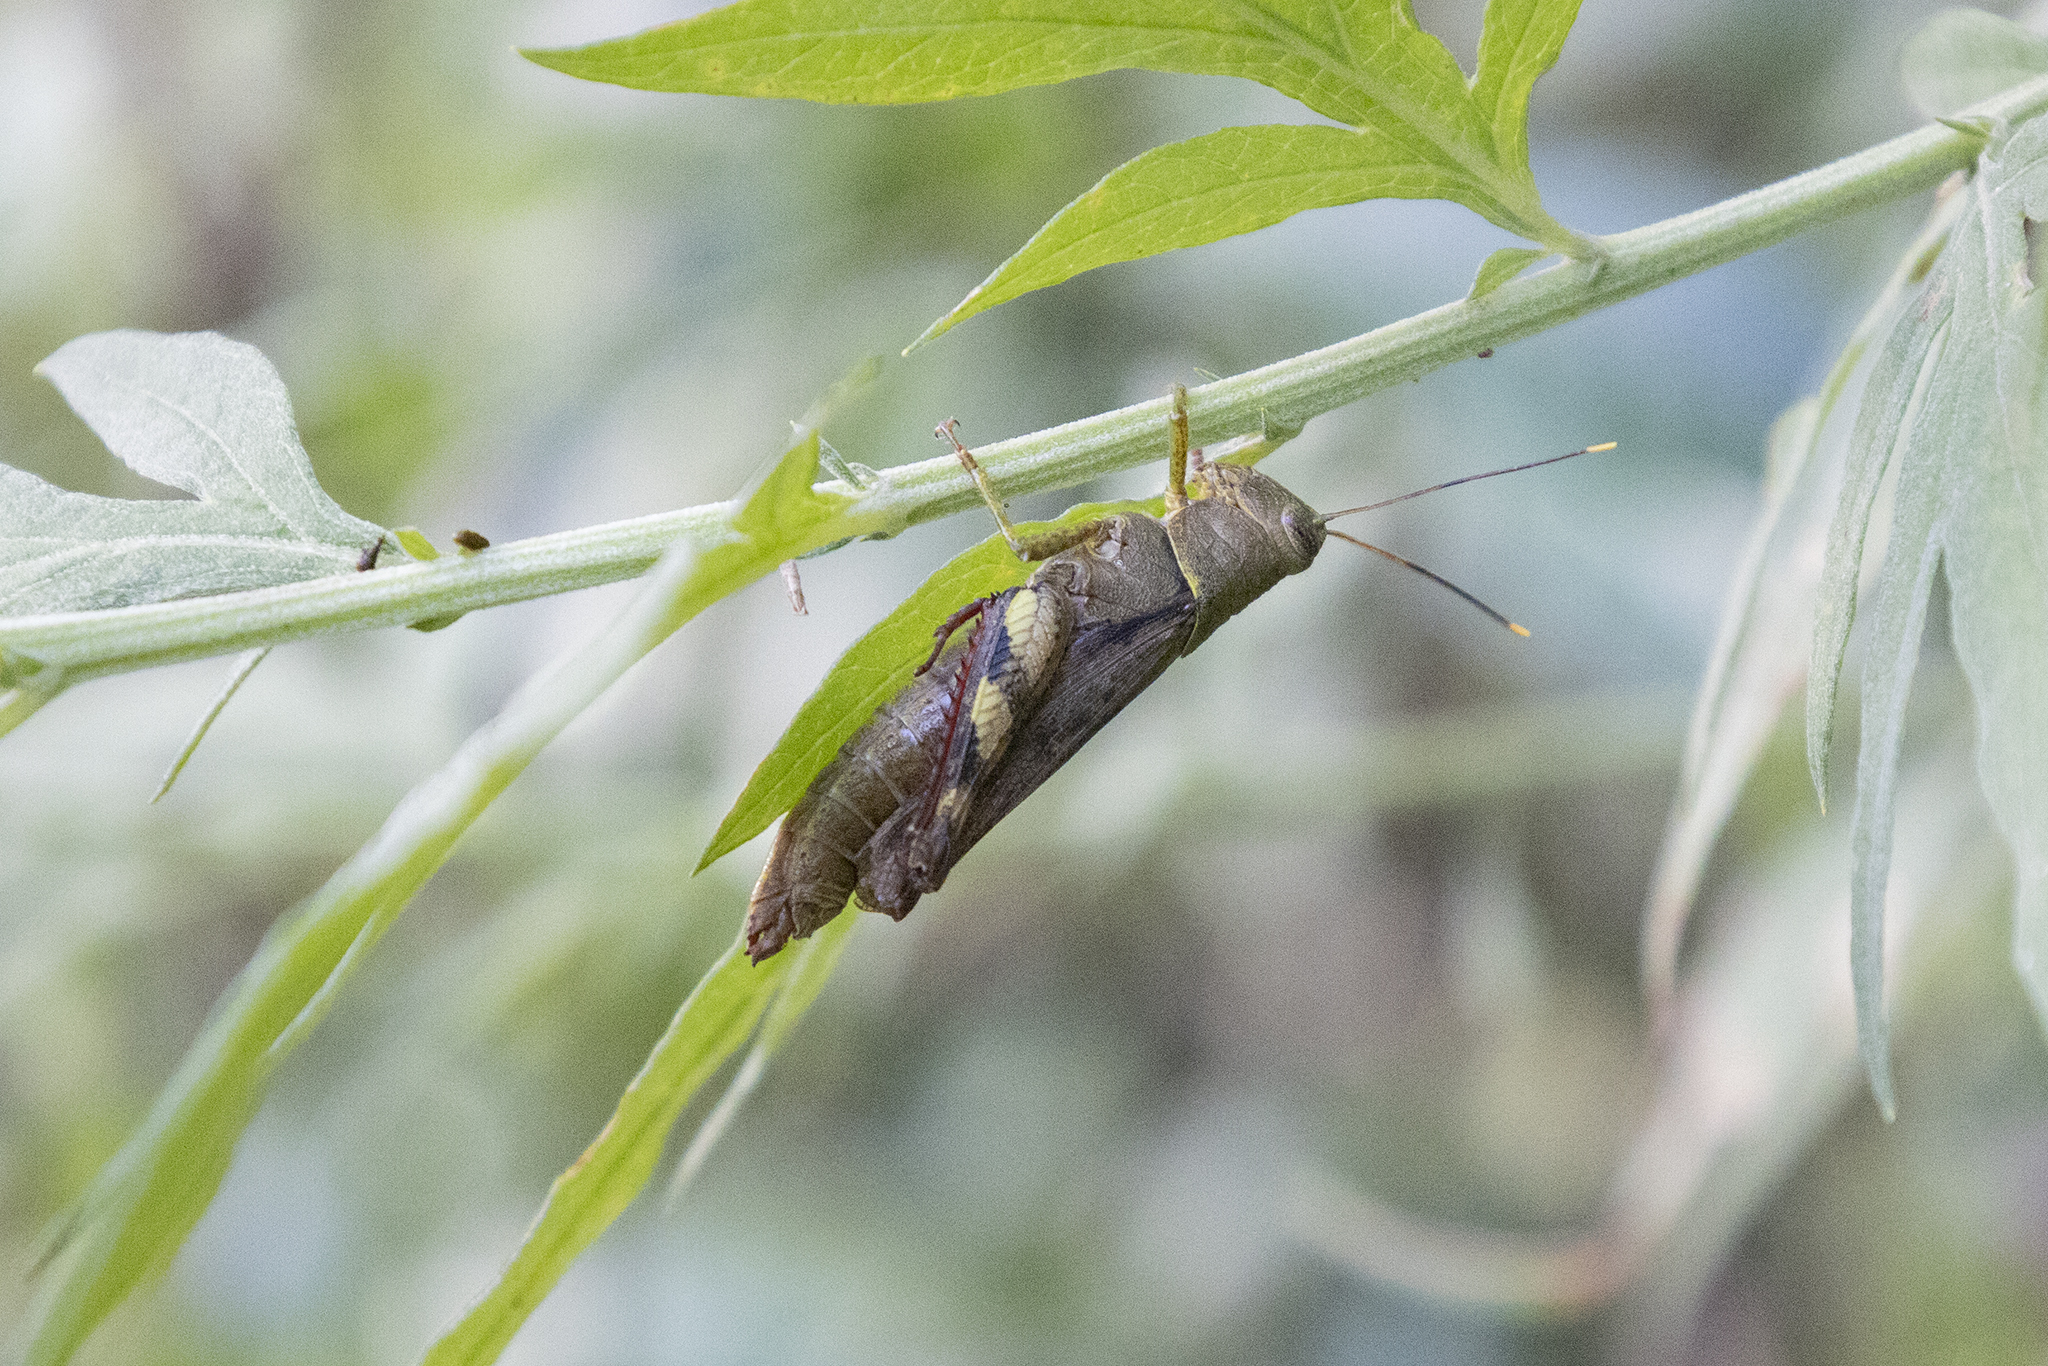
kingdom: Animalia
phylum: Arthropoda
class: Insecta
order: Orthoptera
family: Acrididae
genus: Apalacris
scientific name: Apalacris varicornis
